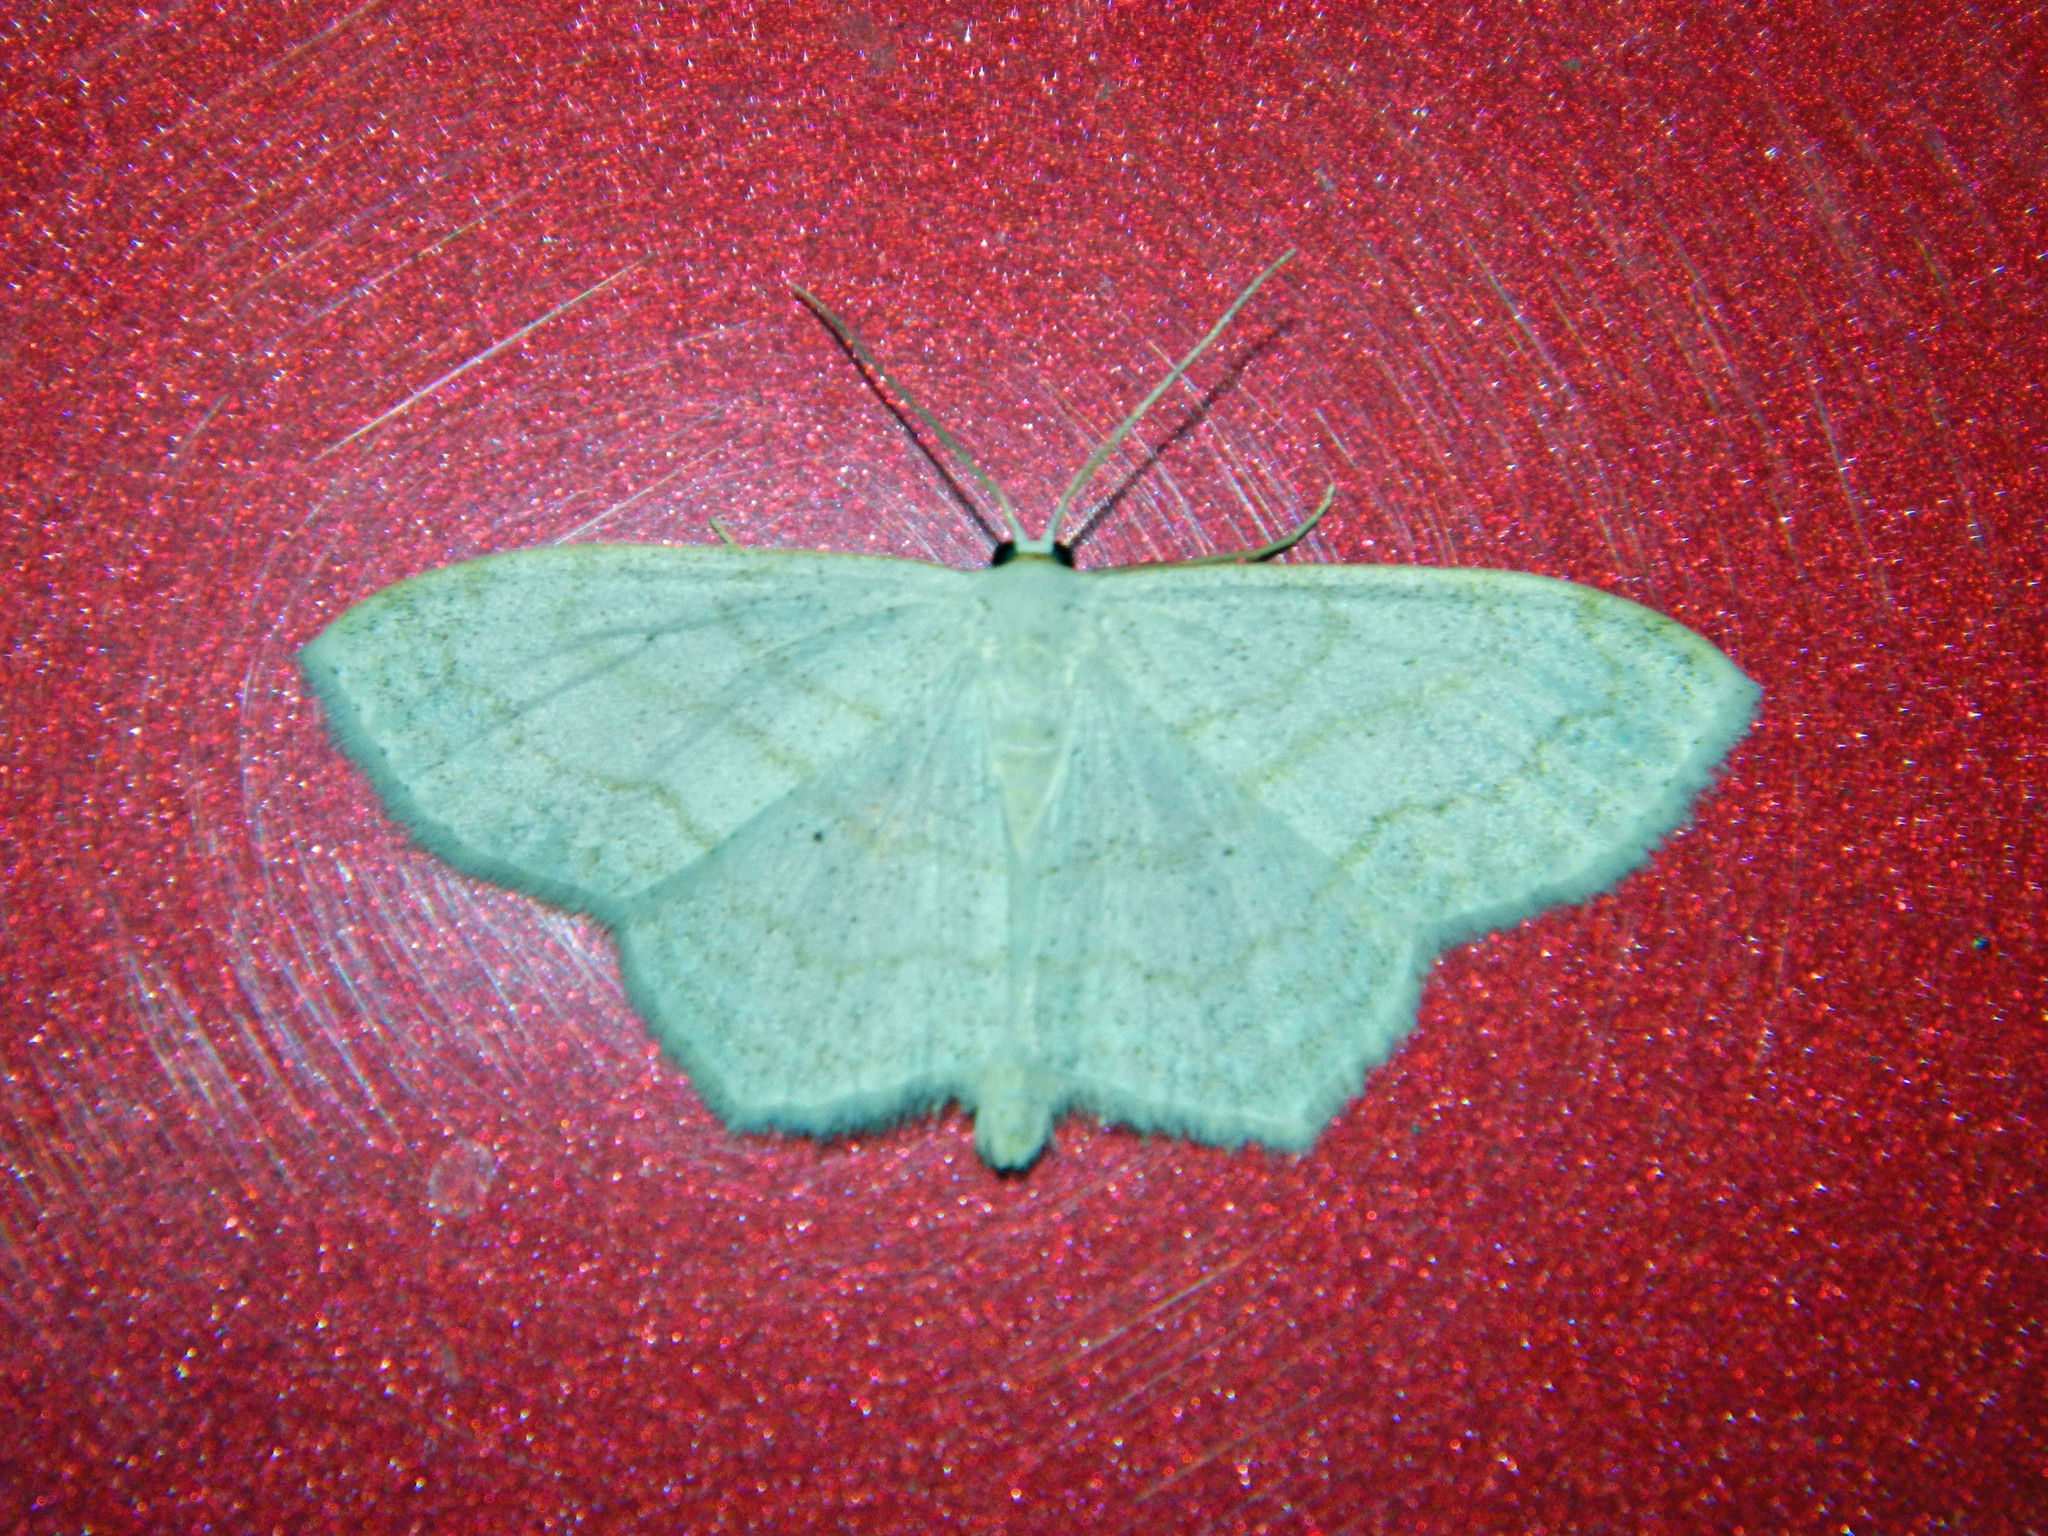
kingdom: Animalia
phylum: Arthropoda
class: Insecta
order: Lepidoptera
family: Geometridae
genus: Scopula
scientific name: Scopula limboundata
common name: Large lace border
